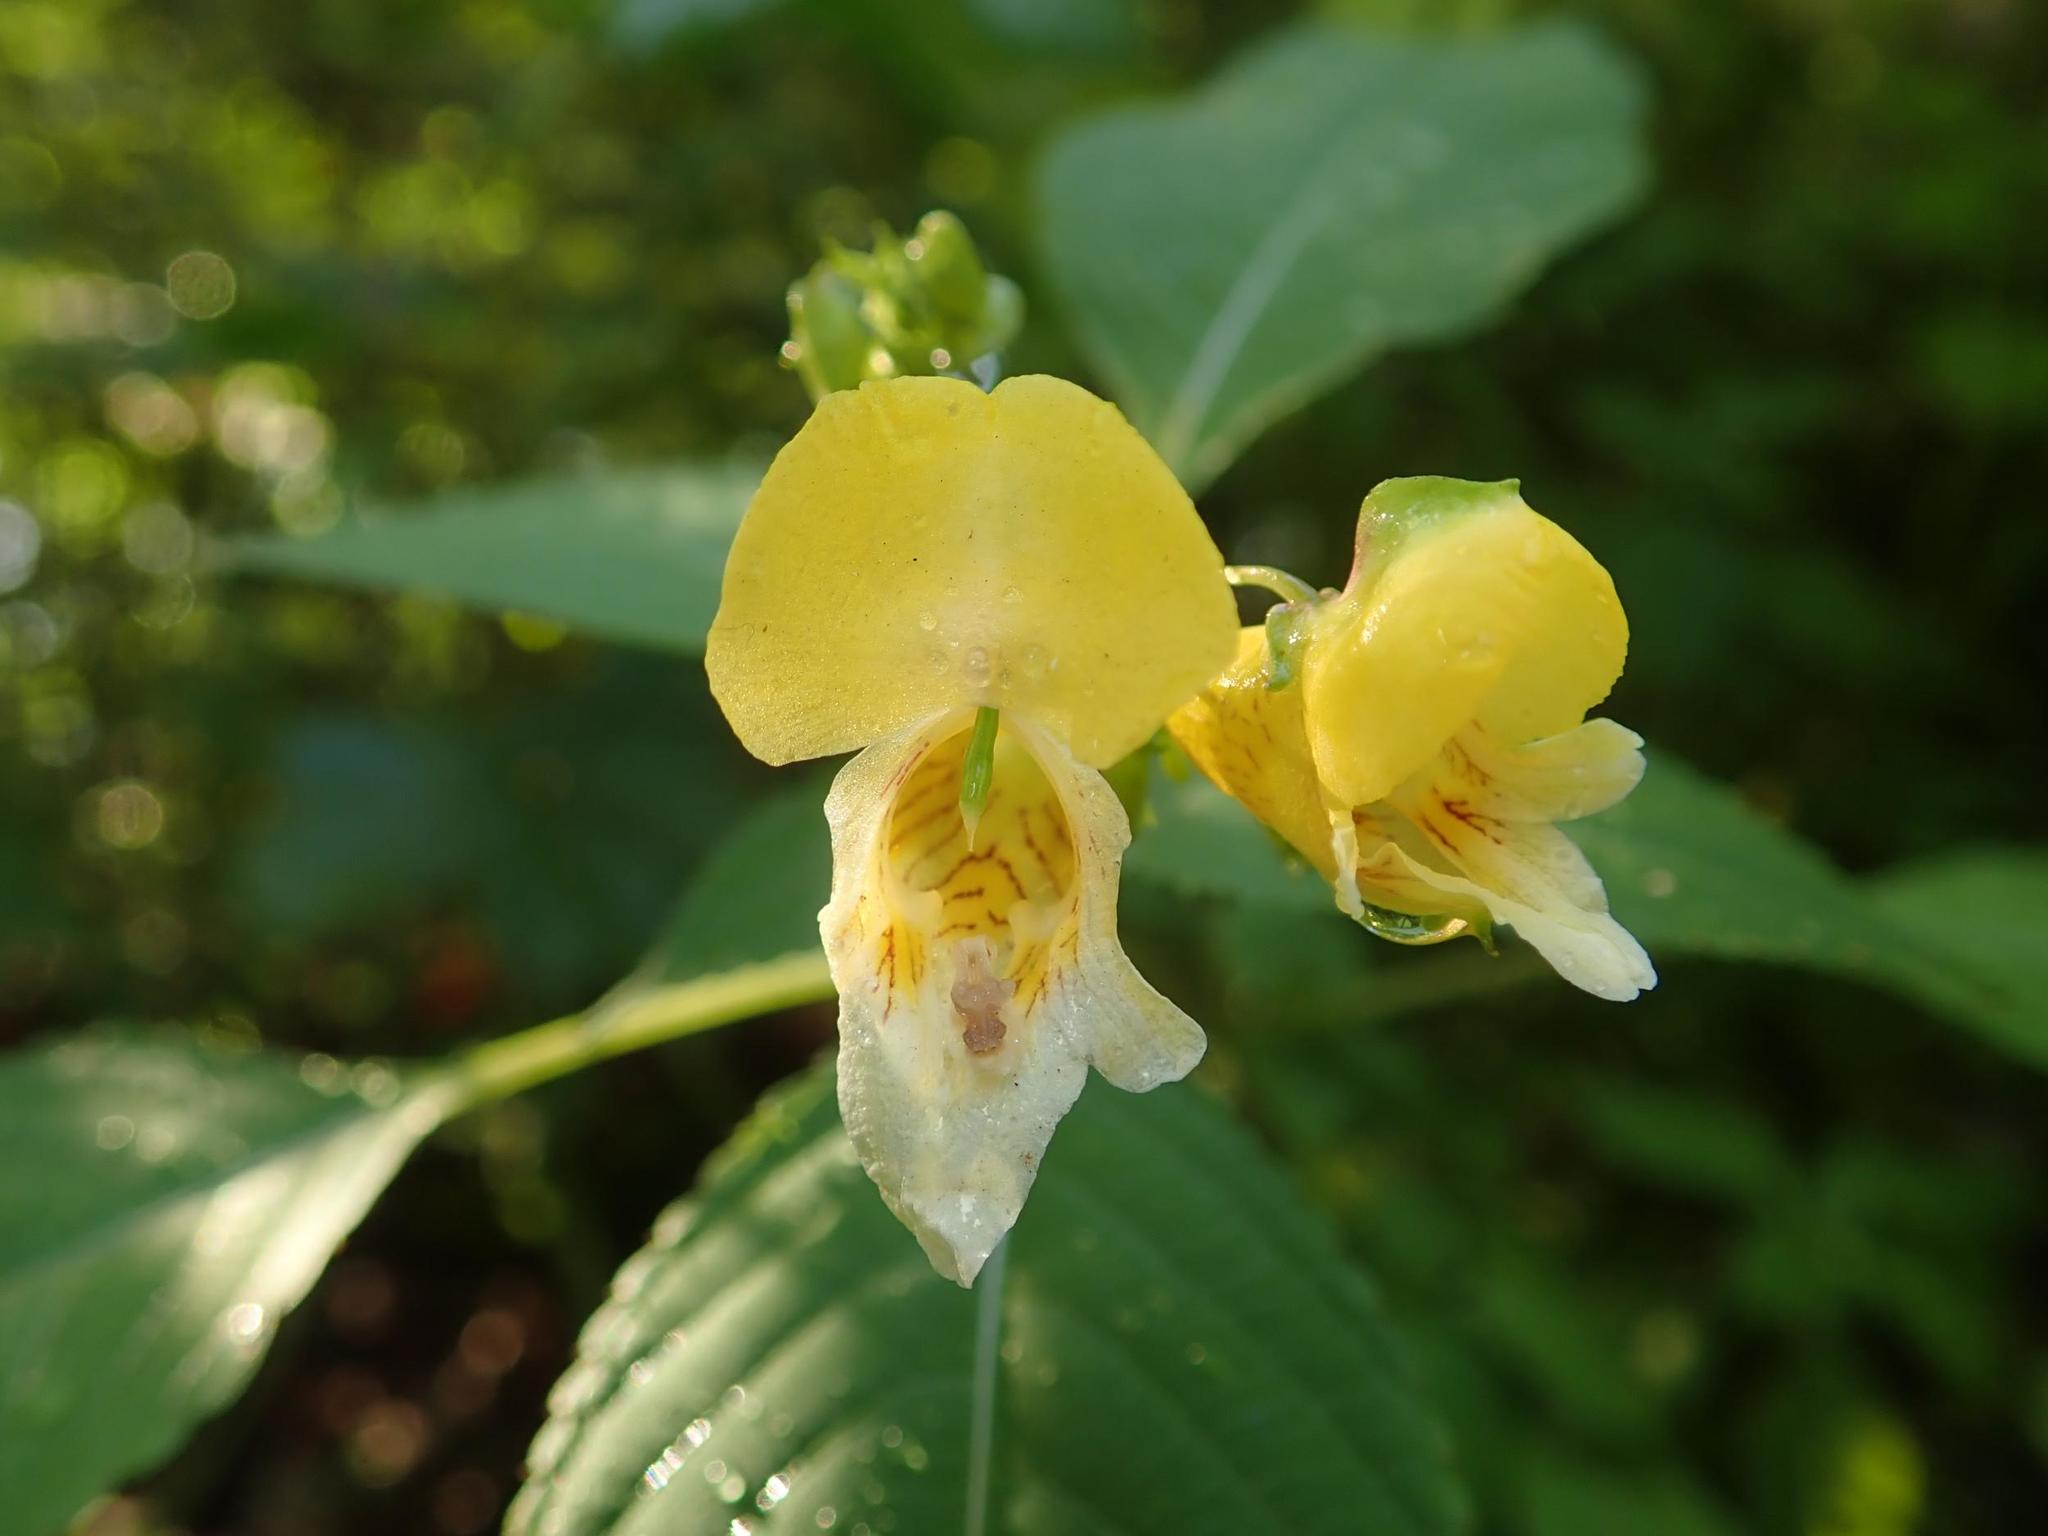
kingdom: Plantae
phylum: Tracheophyta
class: Magnoliopsida
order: Ericales
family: Balsaminaceae
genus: Impatiens
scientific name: Impatiens edgeworthii
